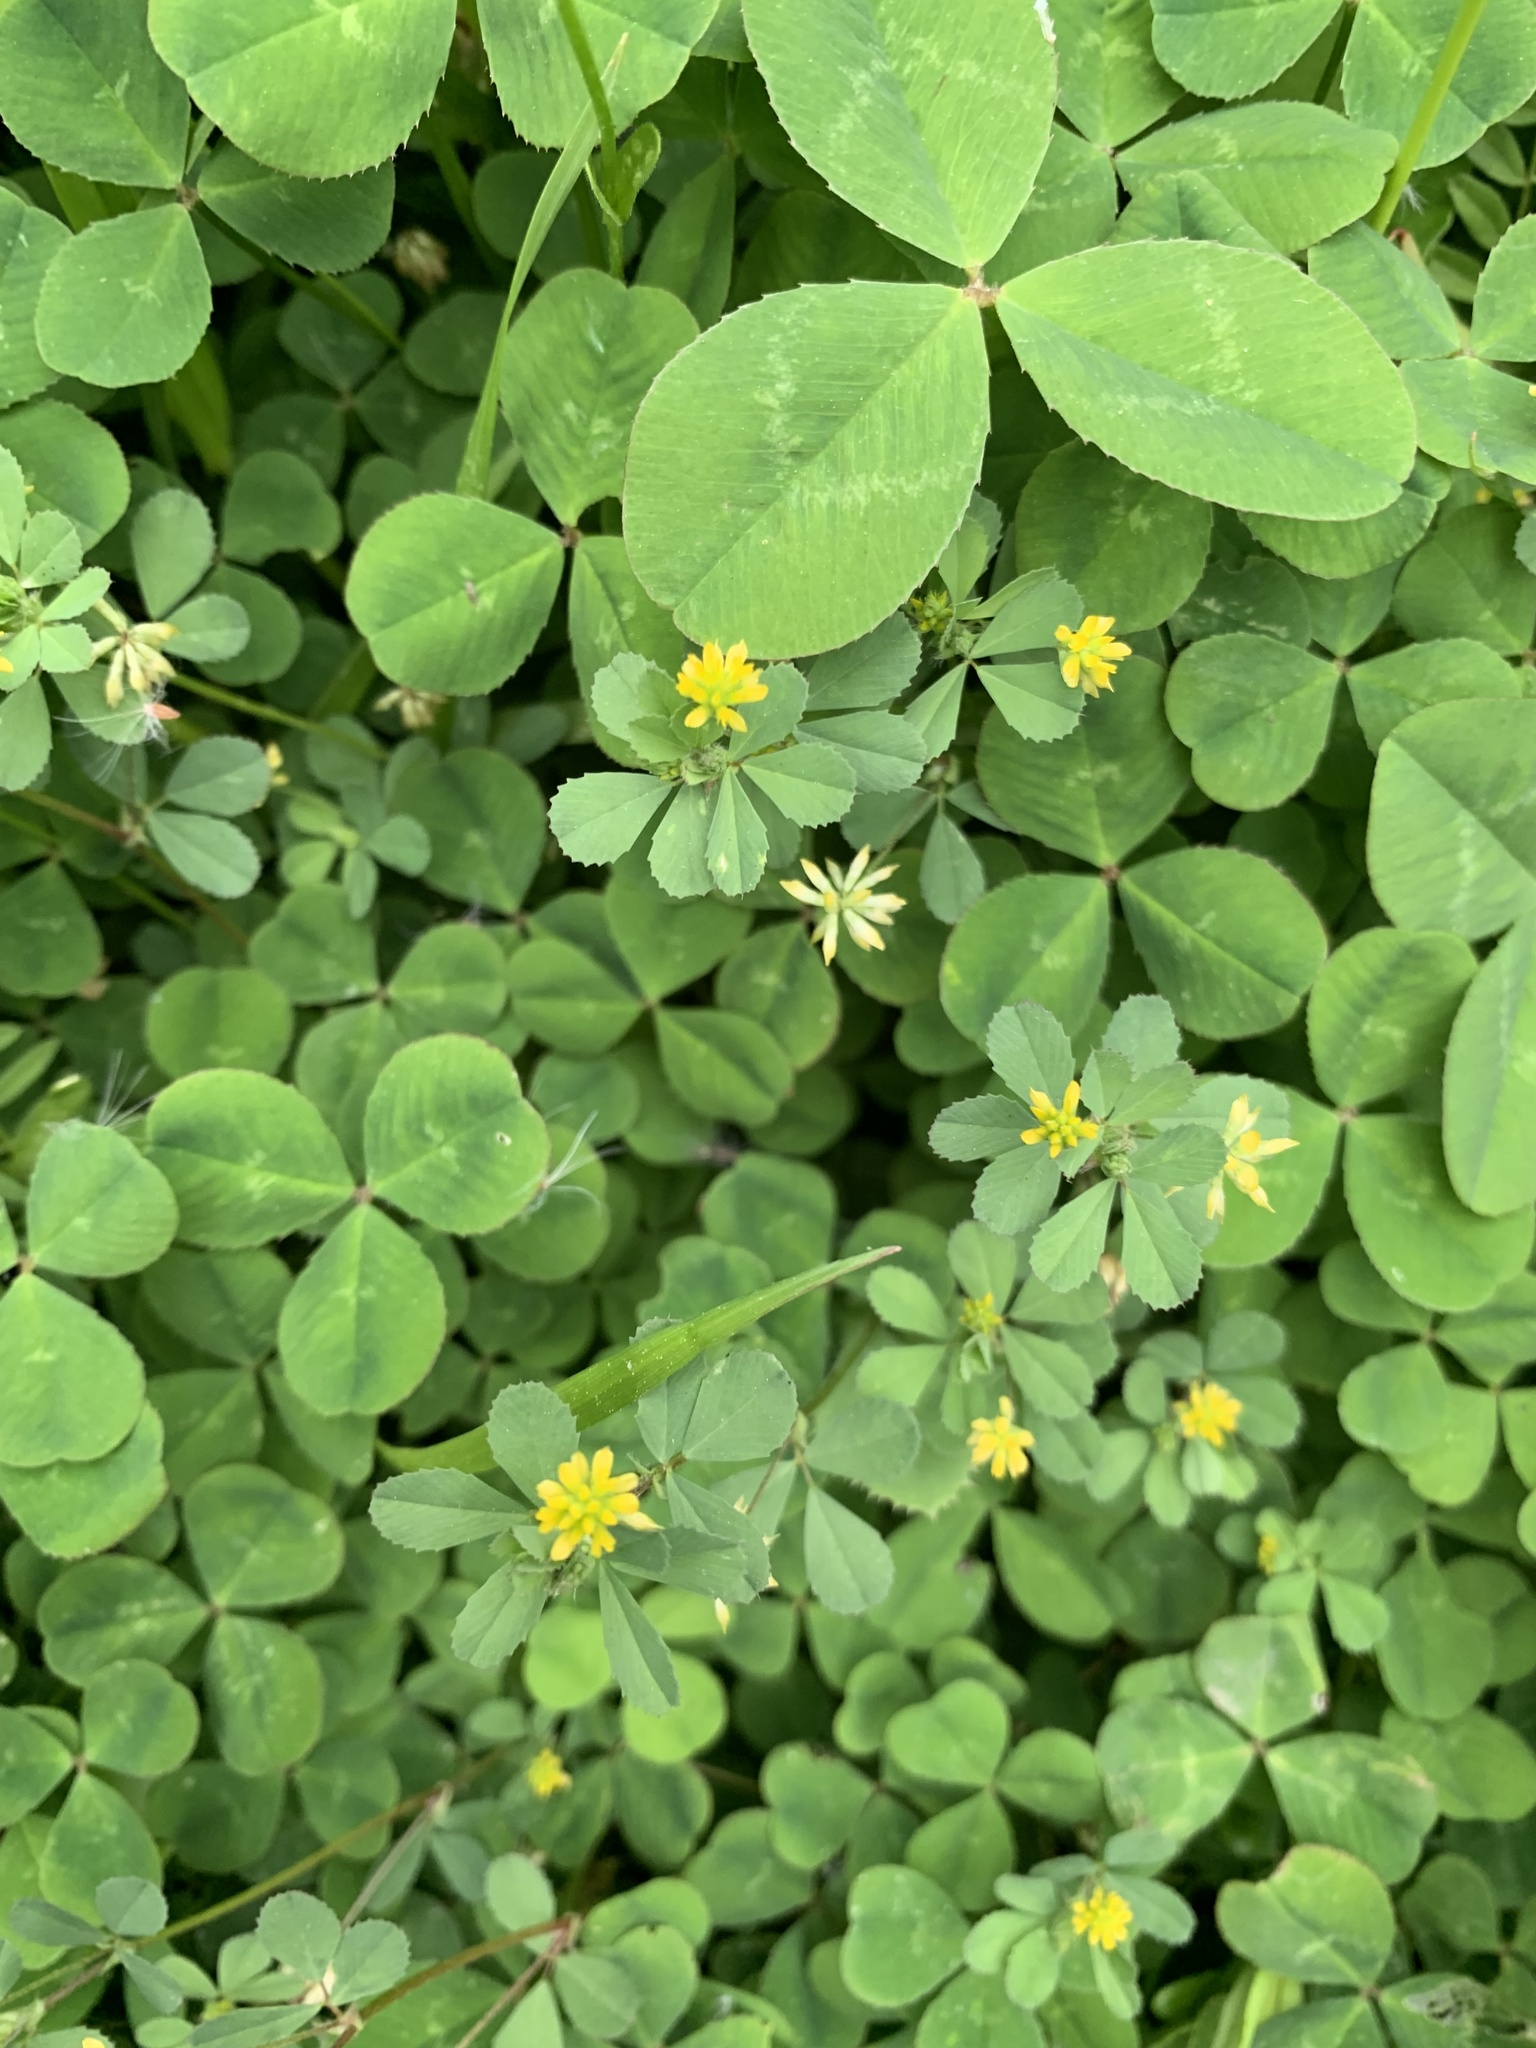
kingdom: Plantae
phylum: Tracheophyta
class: Magnoliopsida
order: Fabales
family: Fabaceae
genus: Trifolium
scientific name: Trifolium dubium
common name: Suckling clover
